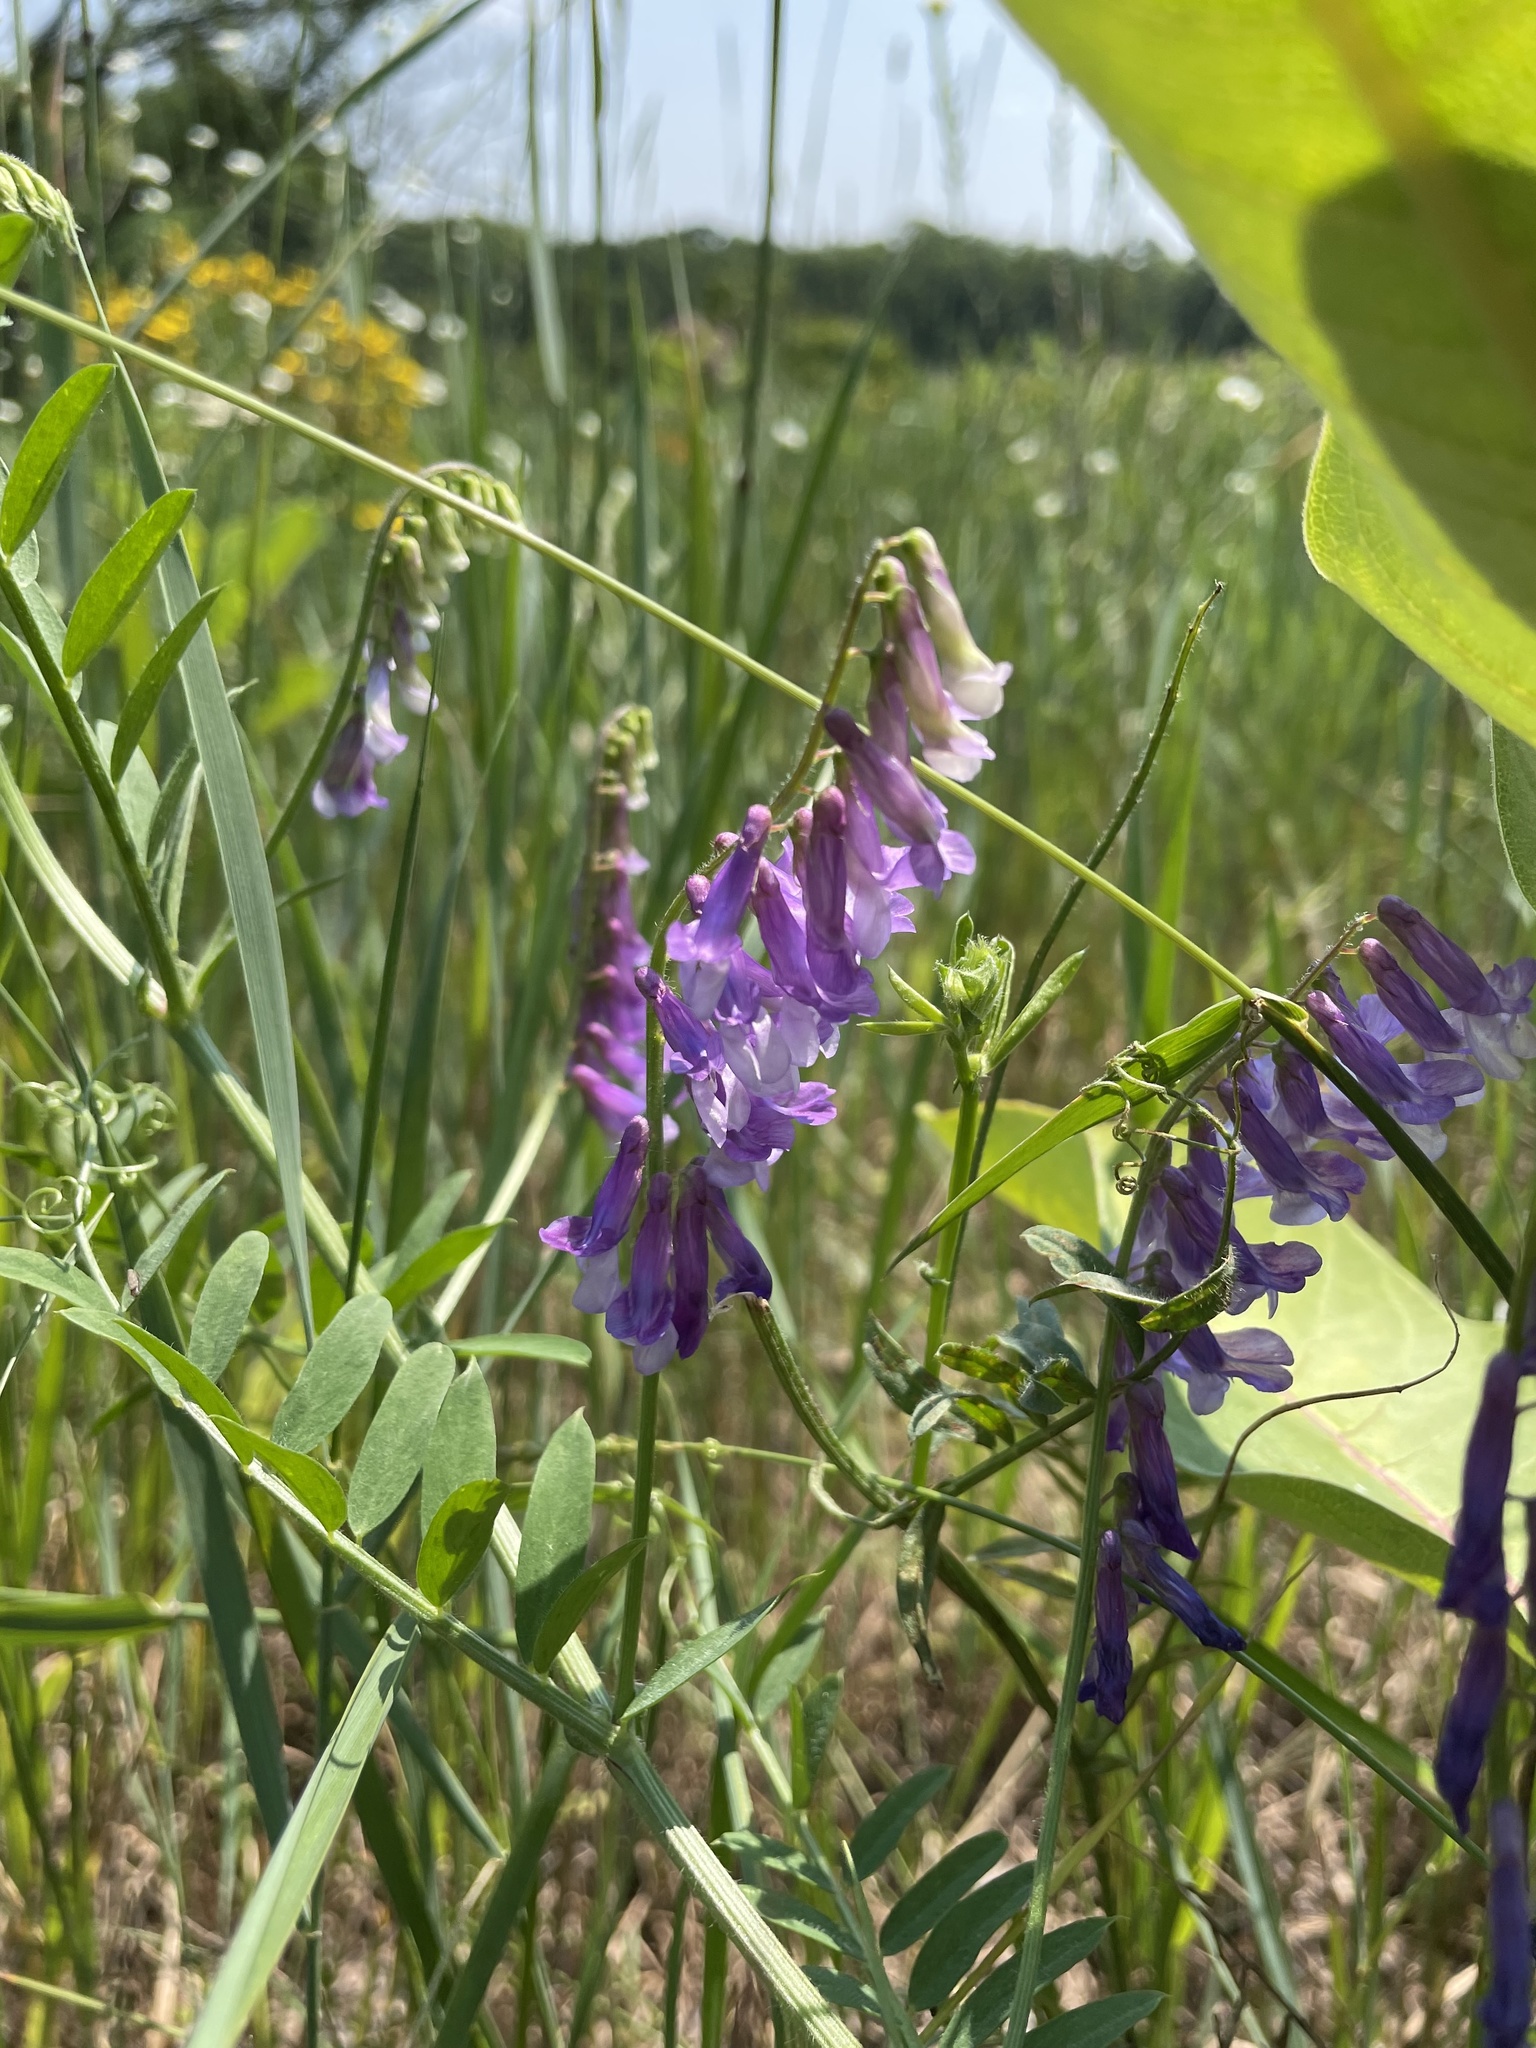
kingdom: Plantae
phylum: Tracheophyta
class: Magnoliopsida
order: Fabales
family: Fabaceae
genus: Vicia
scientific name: Vicia villosa
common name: Fodder vetch
